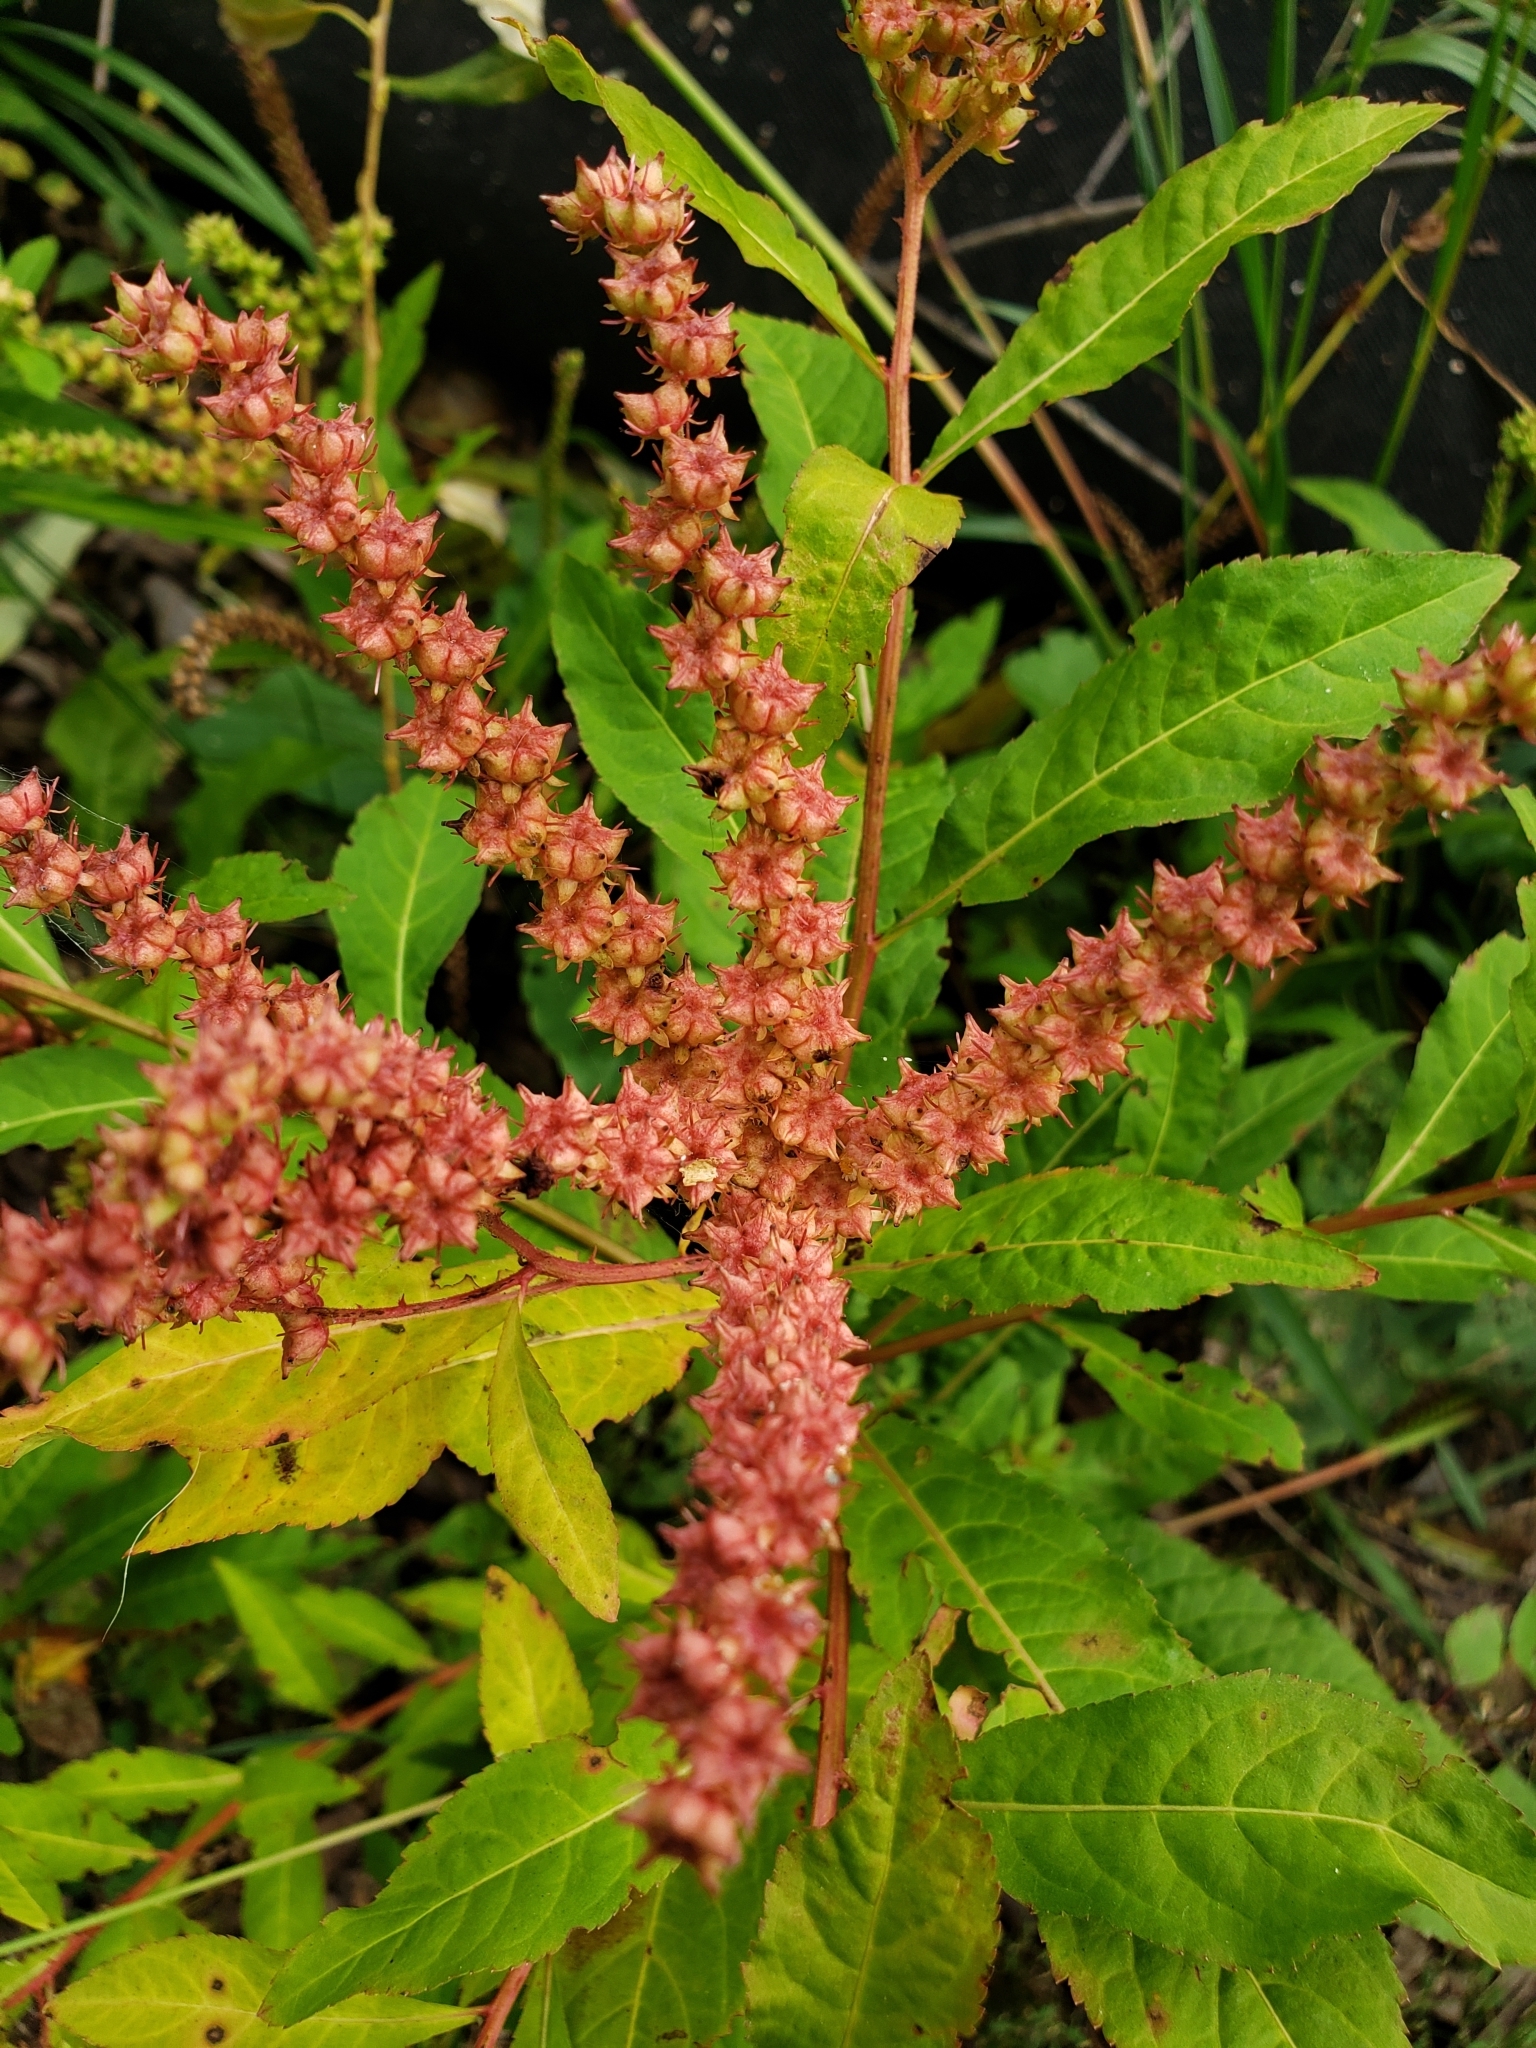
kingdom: Plantae
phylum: Tracheophyta
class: Magnoliopsida
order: Saxifragales
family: Penthoraceae
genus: Penthorum
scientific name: Penthorum sedoides
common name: Ditch stonecrop
